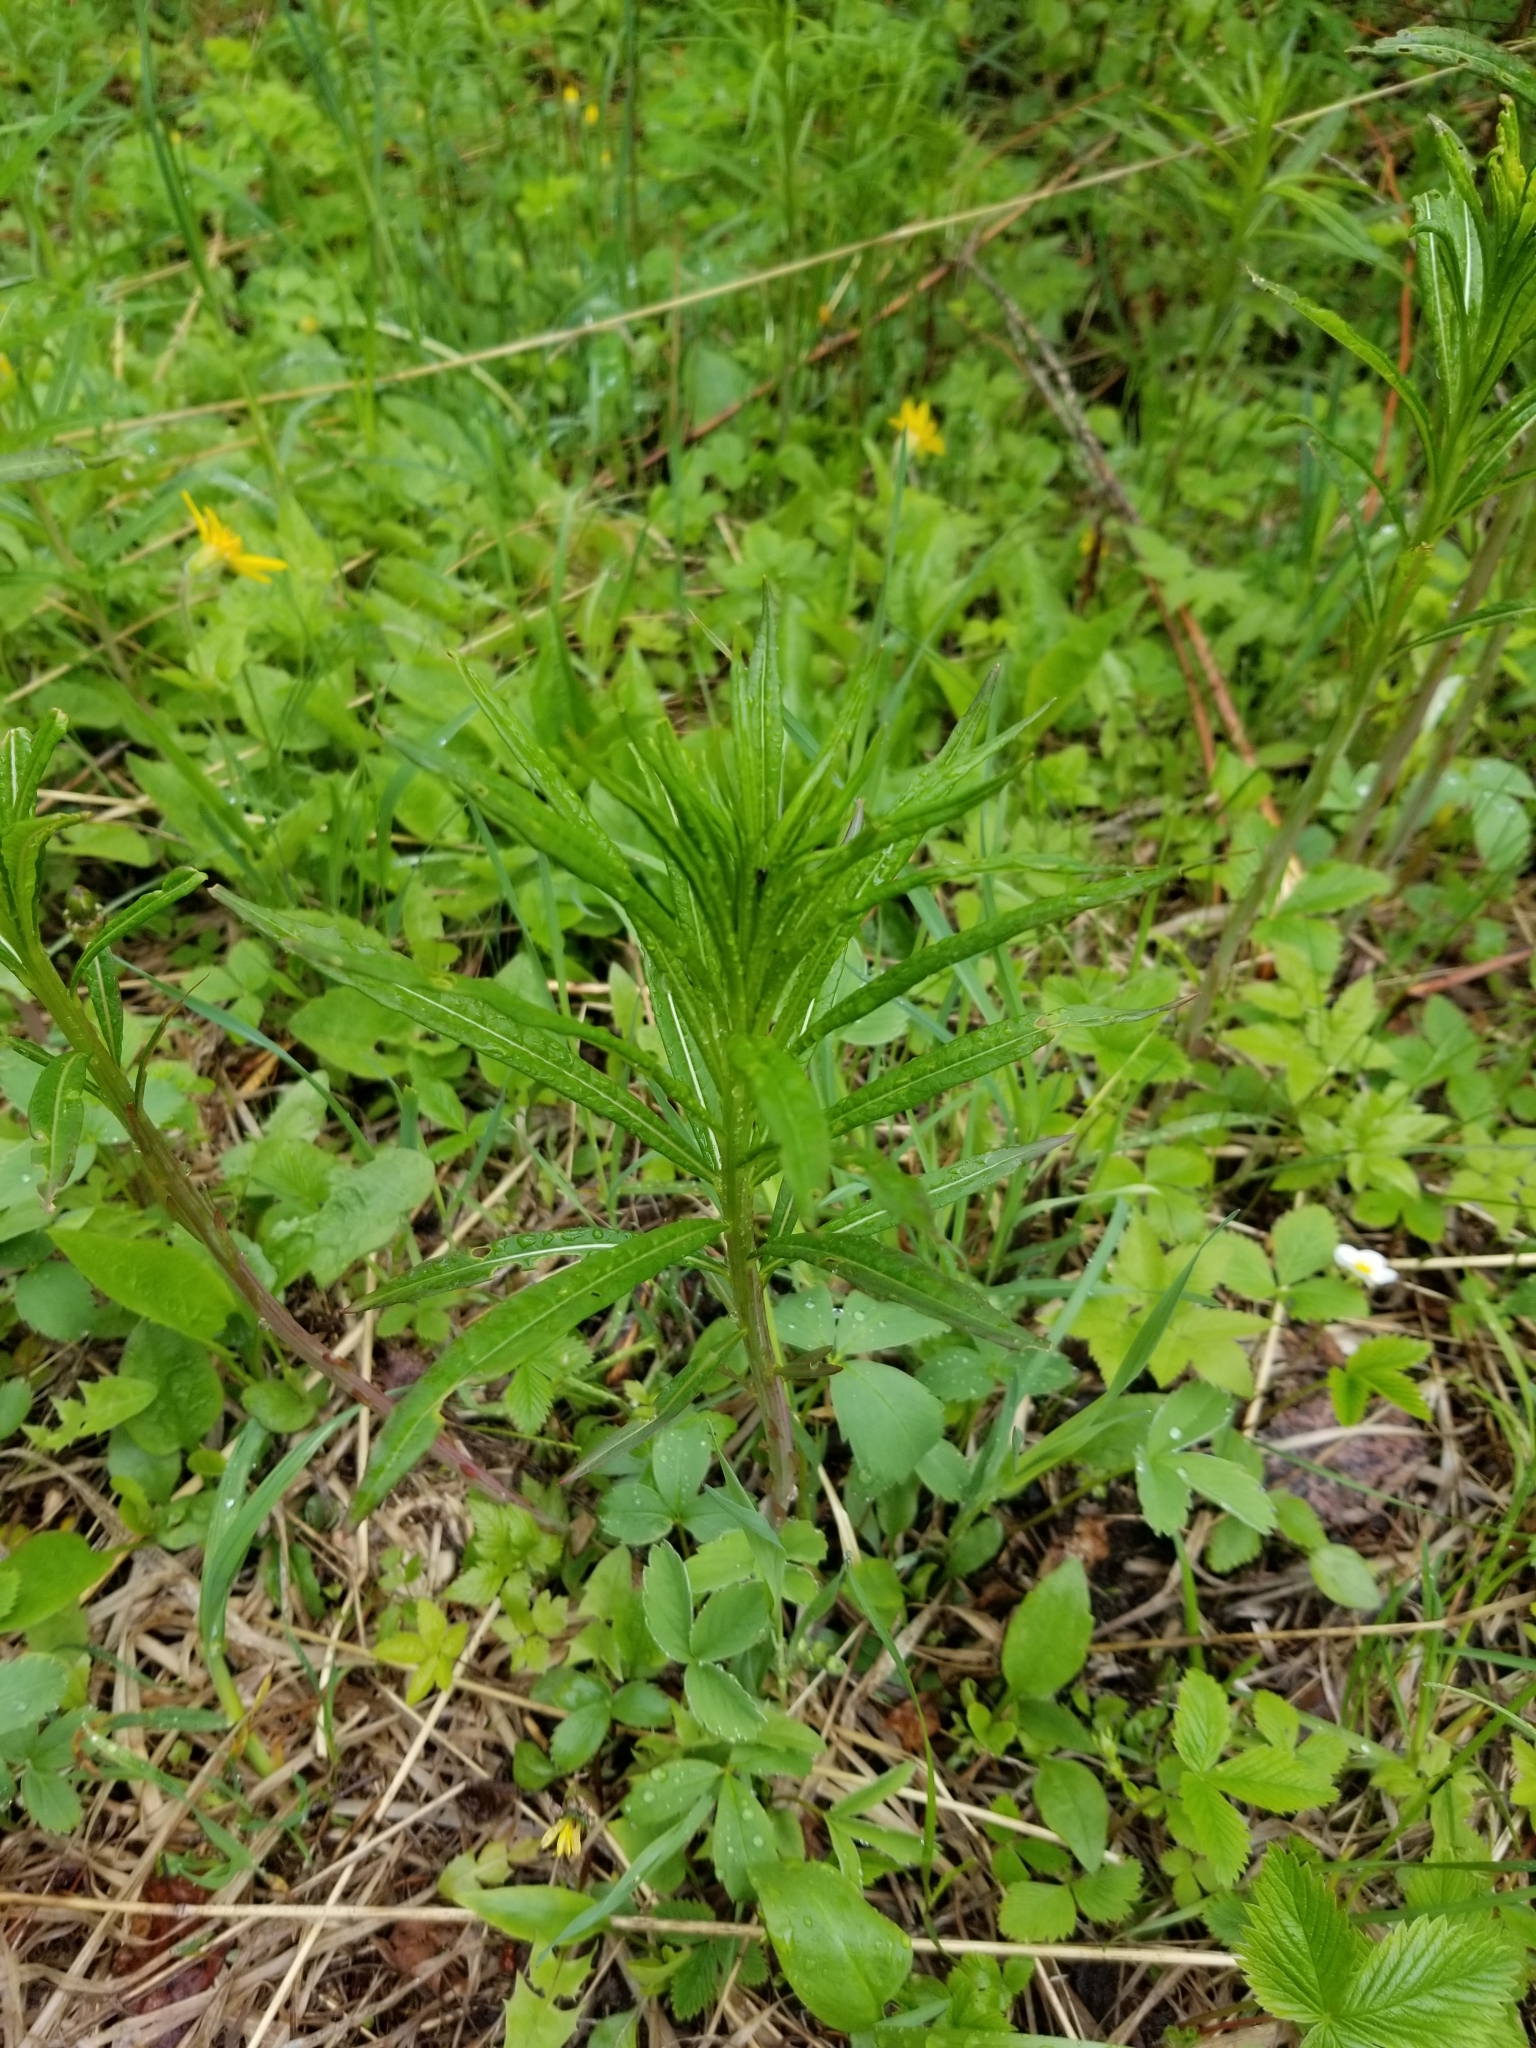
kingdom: Plantae
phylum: Tracheophyta
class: Magnoliopsida
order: Myrtales
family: Onagraceae
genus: Chamaenerion
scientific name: Chamaenerion angustifolium
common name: Fireweed
